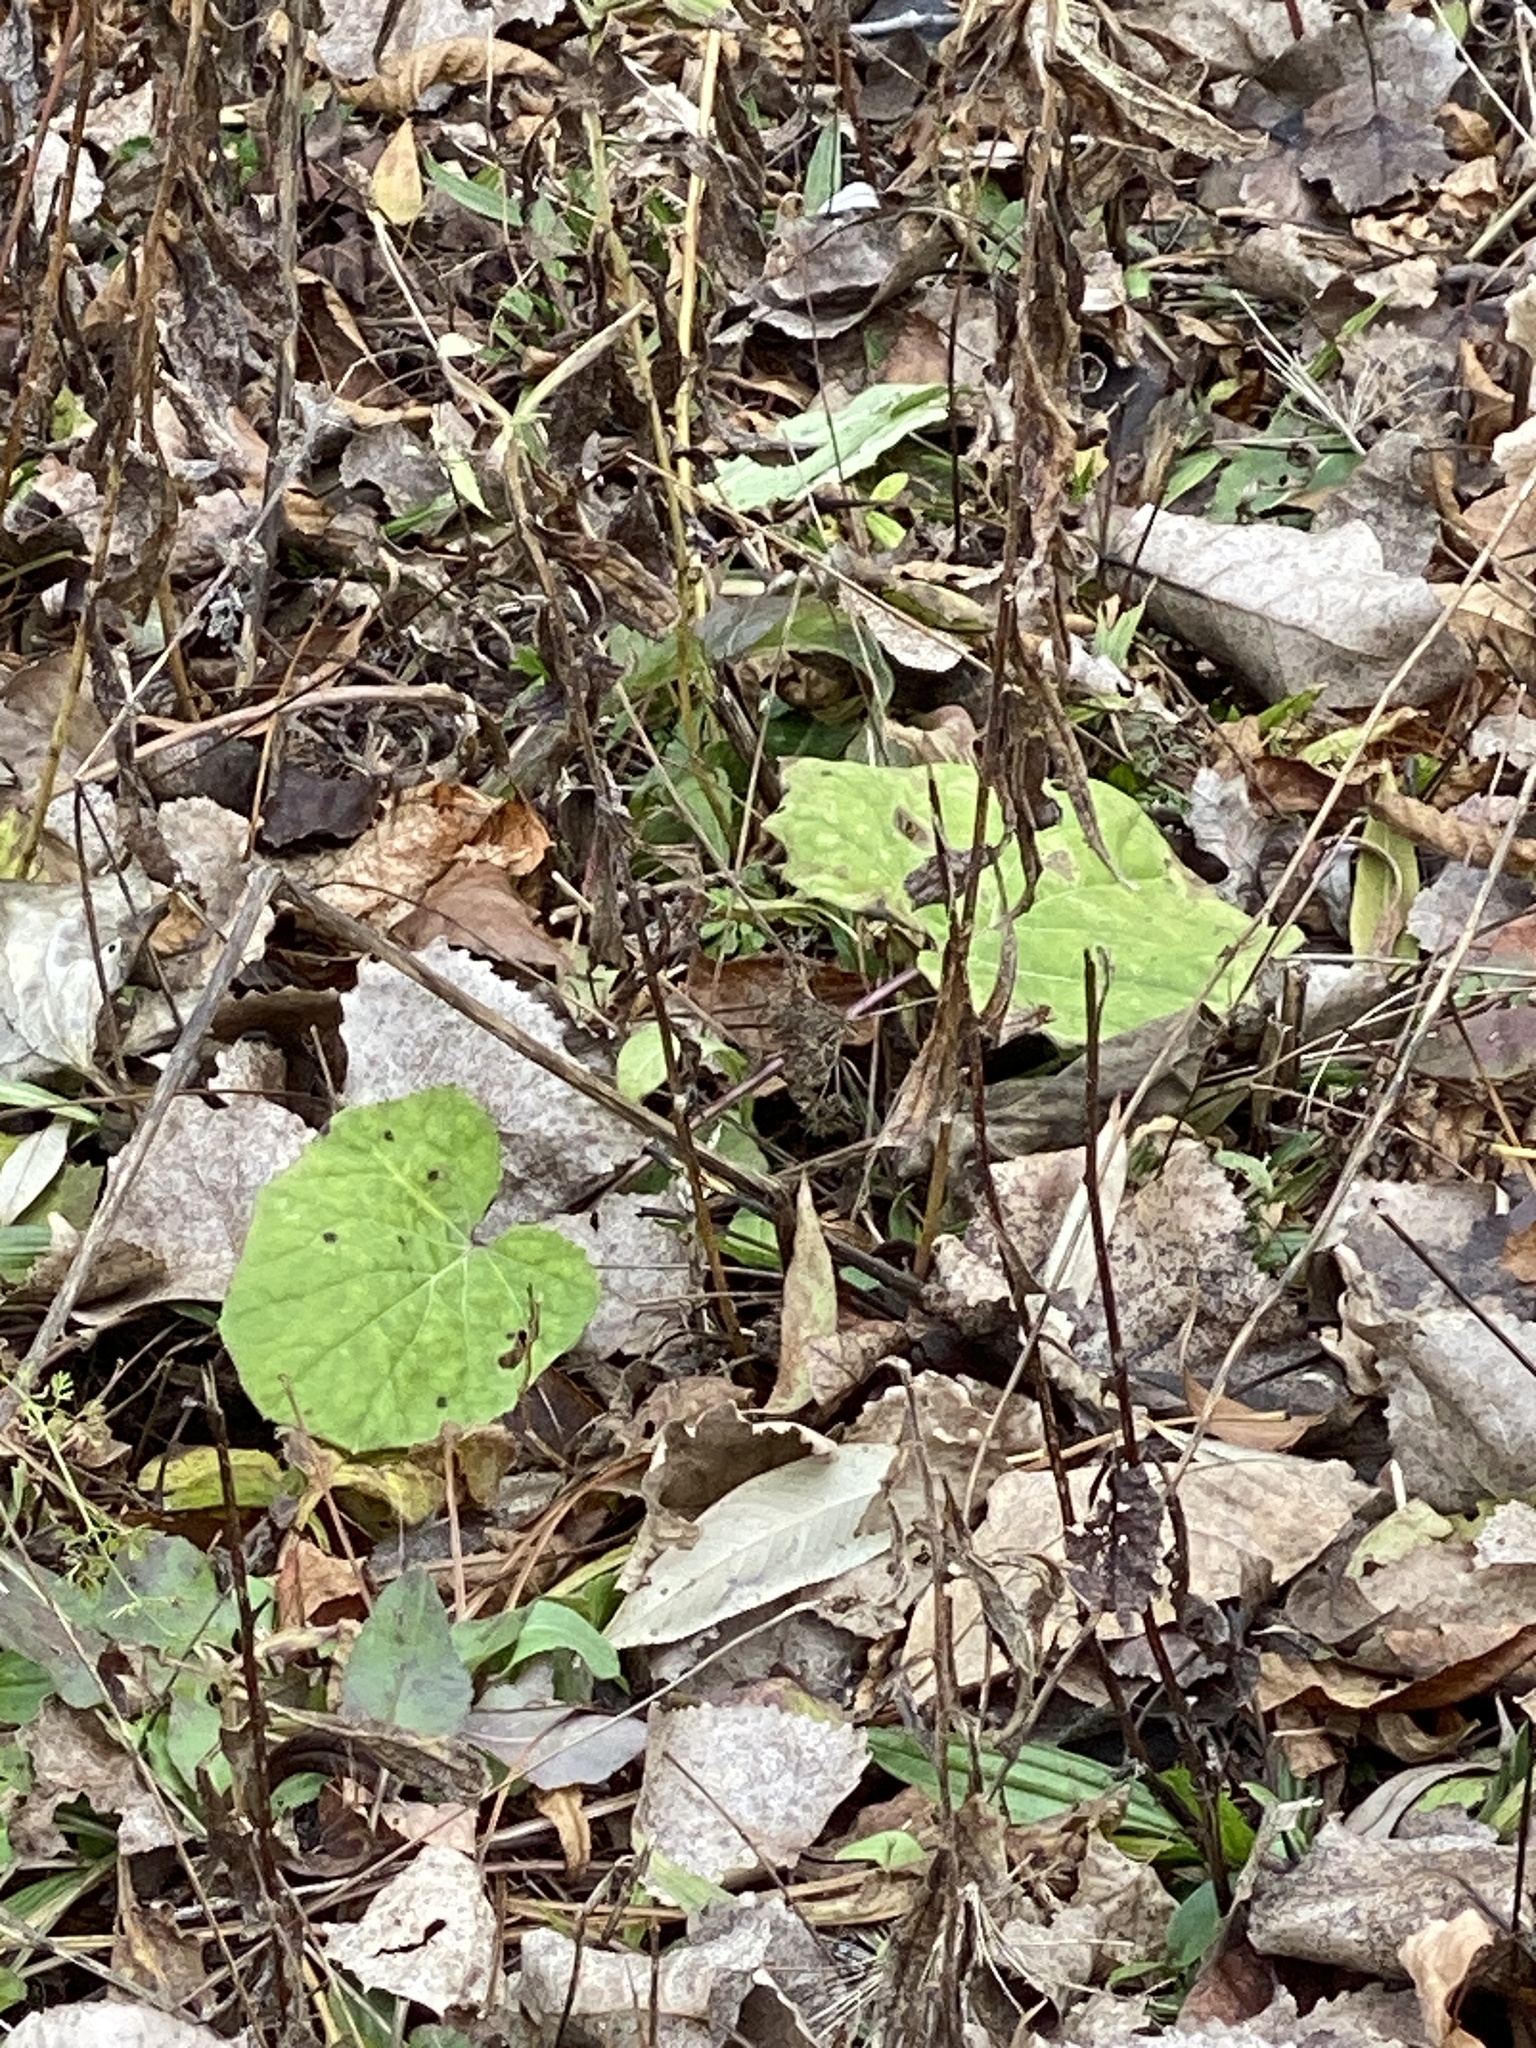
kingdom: Plantae
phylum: Tracheophyta
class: Magnoliopsida
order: Asterales
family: Asteraceae
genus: Tussilago
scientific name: Tussilago farfara
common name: Coltsfoot
